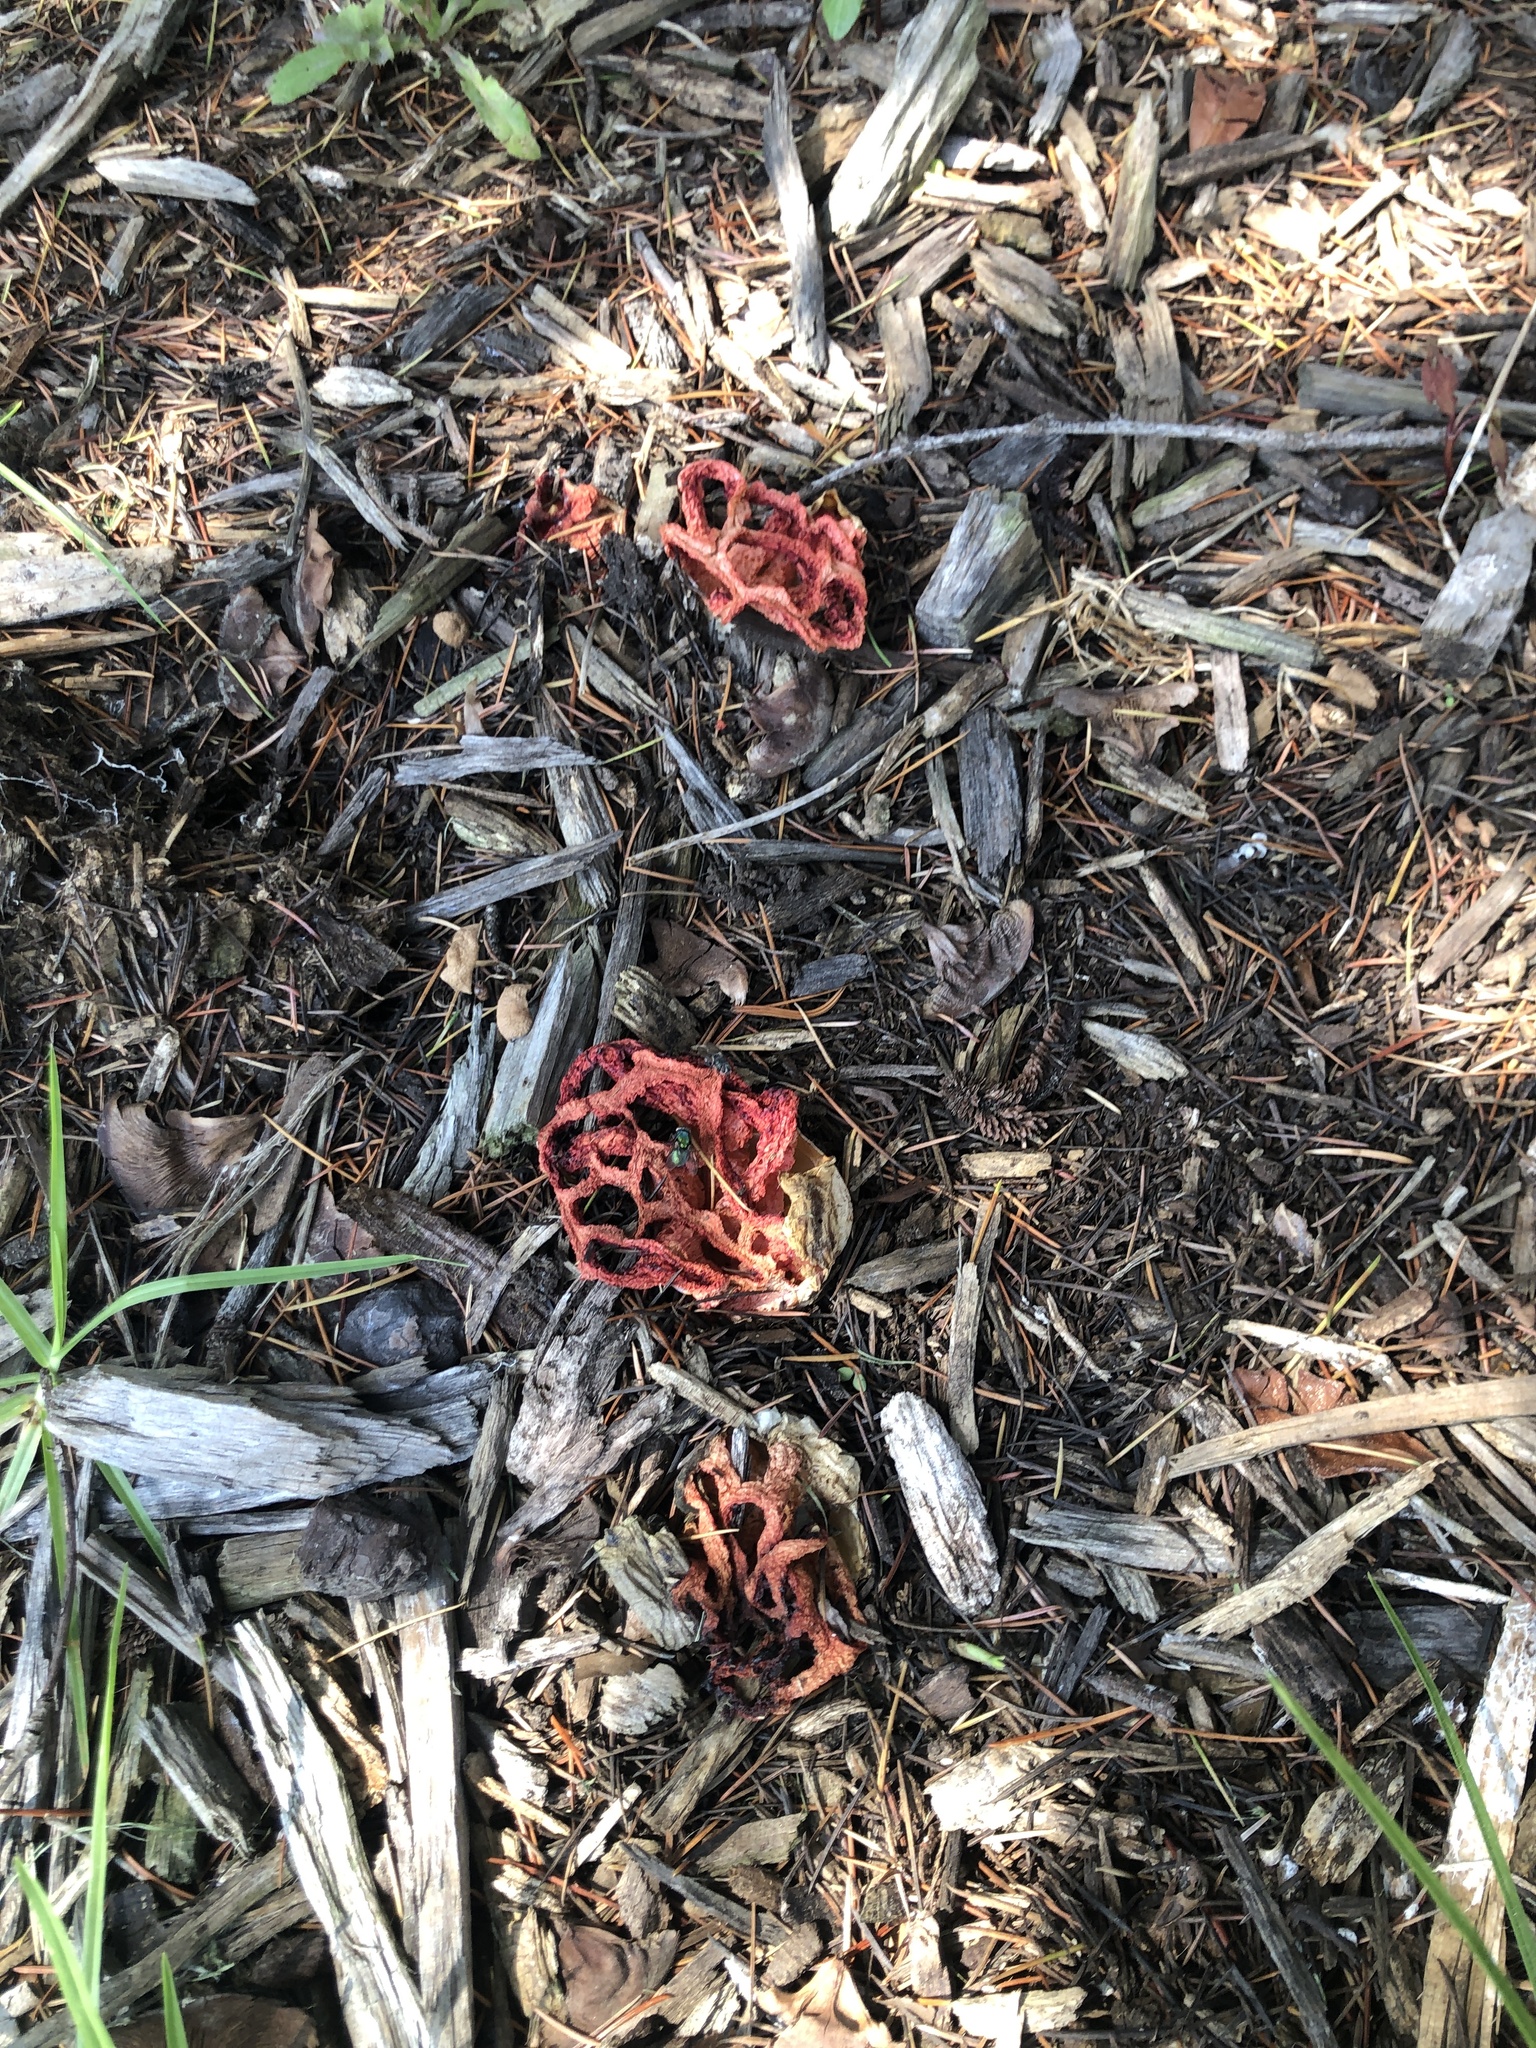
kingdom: Fungi
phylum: Basidiomycota
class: Agaricomycetes
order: Phallales
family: Phallaceae
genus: Clathrus
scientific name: Clathrus ruber
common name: Red cage
